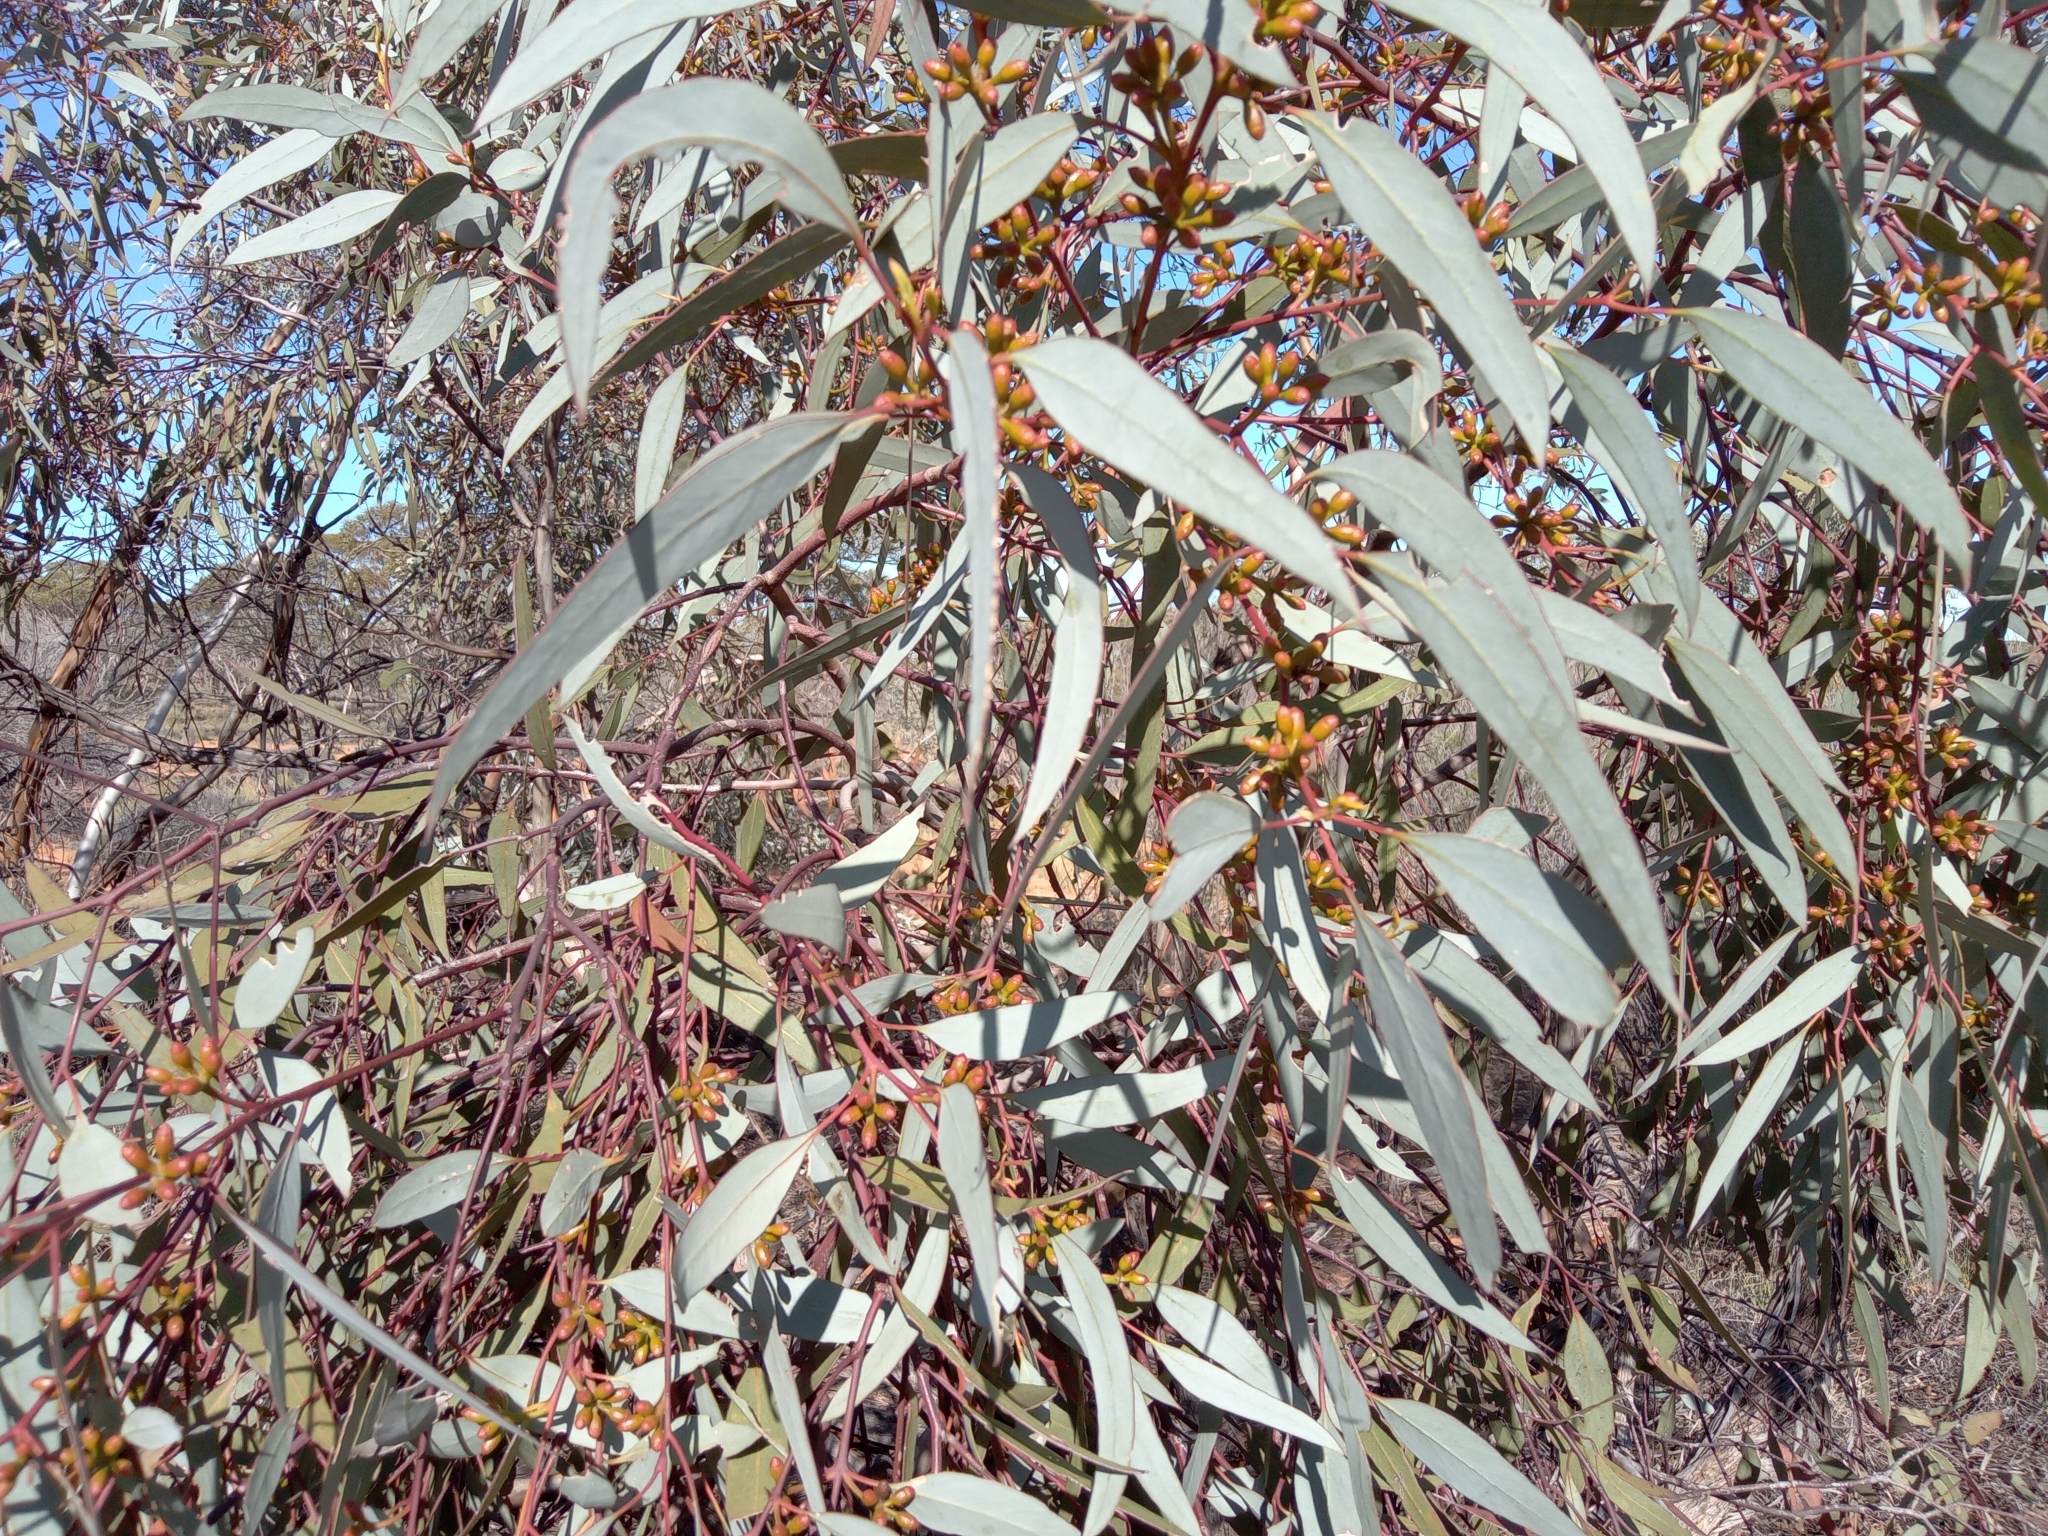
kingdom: Plantae
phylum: Tracheophyta
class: Magnoliopsida
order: Myrtales
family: Myrtaceae
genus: Eucalyptus
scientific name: Eucalyptus dumosa
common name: Dumosa mallee
